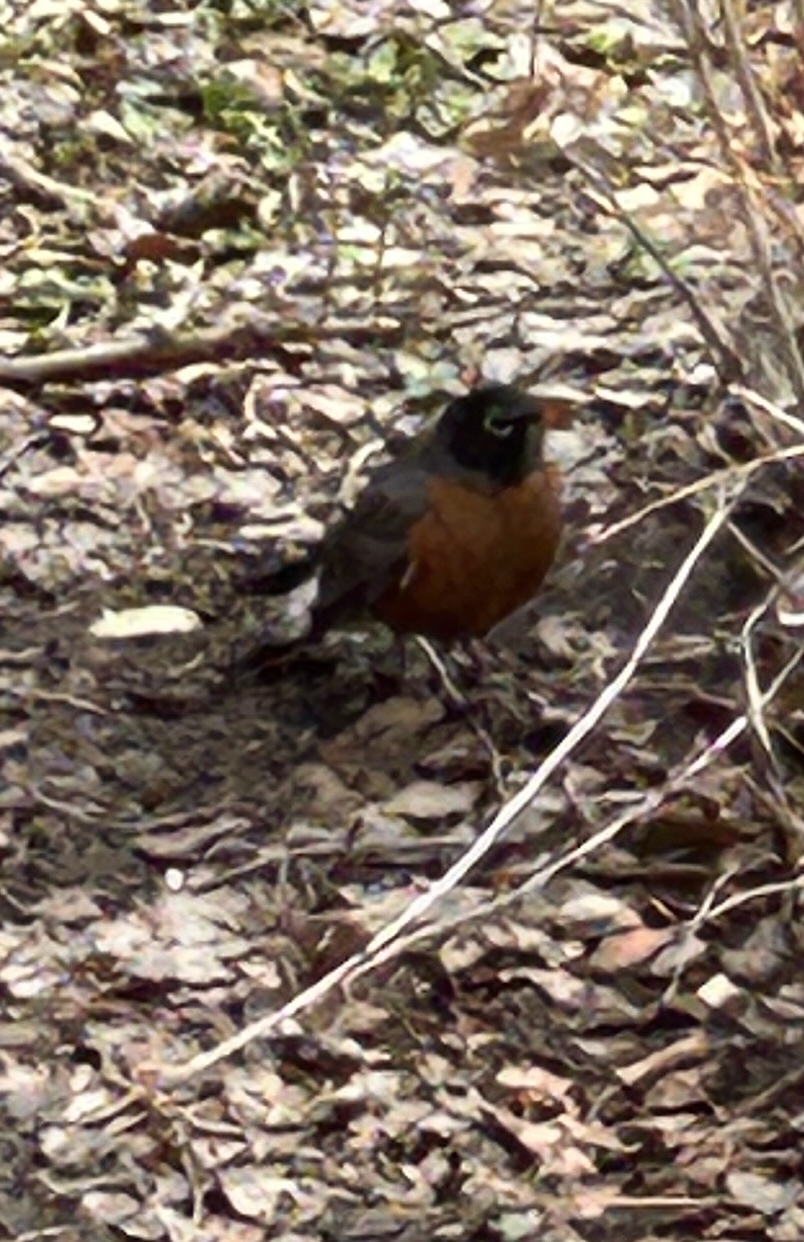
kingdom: Animalia
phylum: Chordata
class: Aves
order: Passeriformes
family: Turdidae
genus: Turdus
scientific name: Turdus migratorius
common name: American robin
